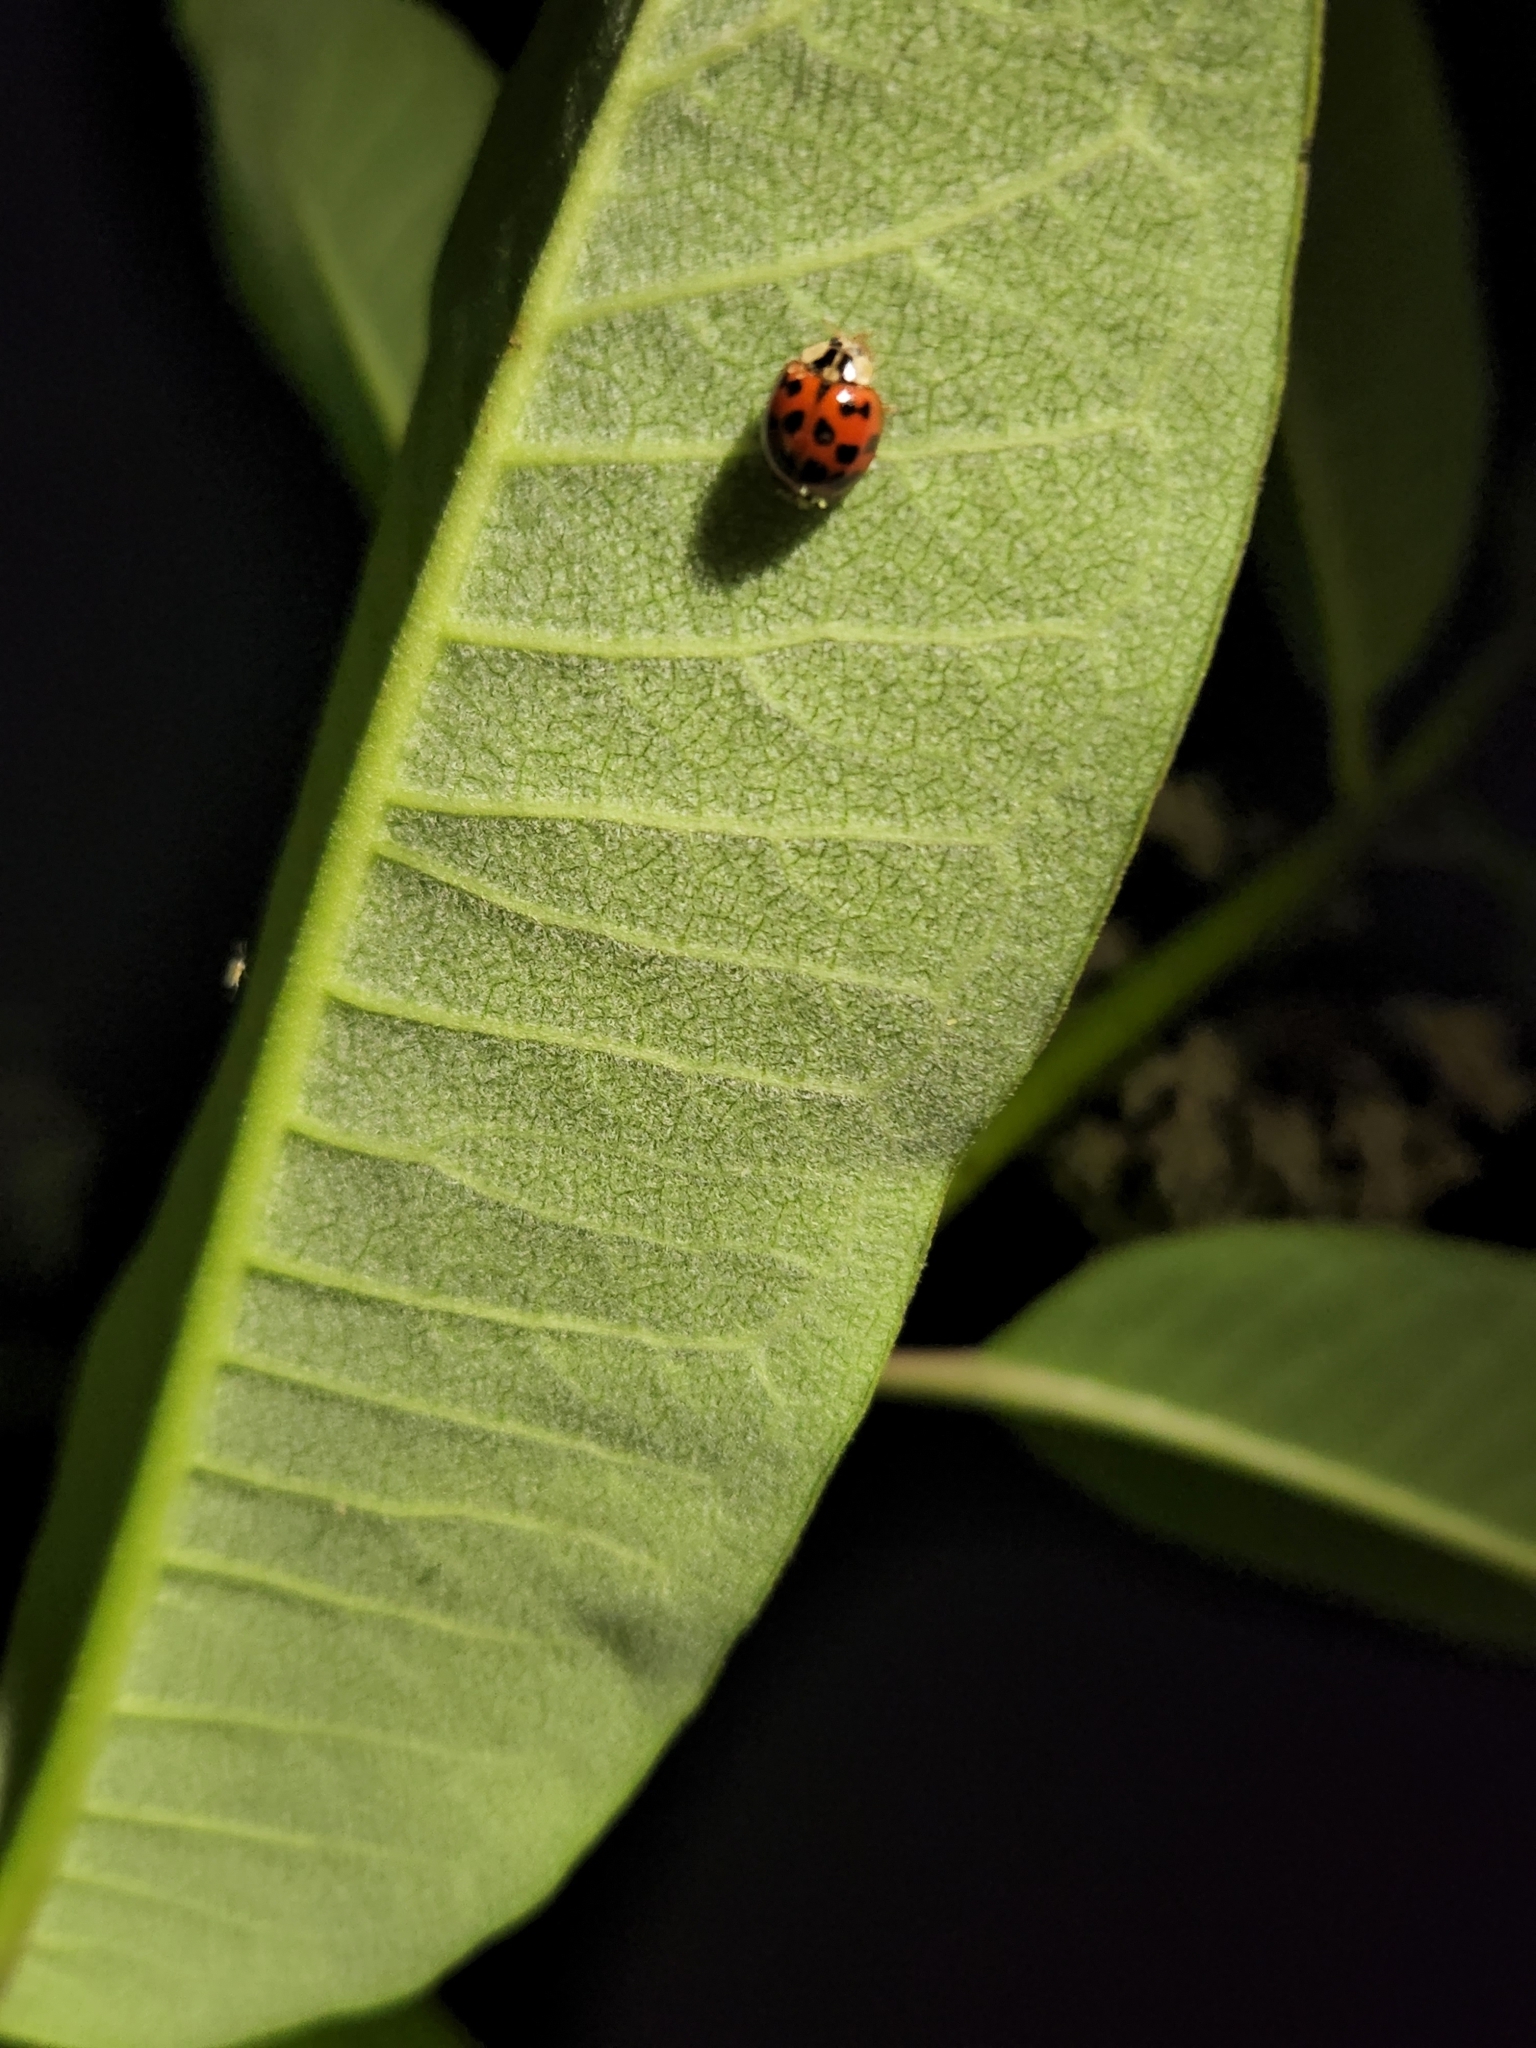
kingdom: Animalia
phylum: Arthropoda
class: Insecta
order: Coleoptera
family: Coccinellidae
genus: Harmonia
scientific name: Harmonia axyridis
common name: Harlequin ladybird
